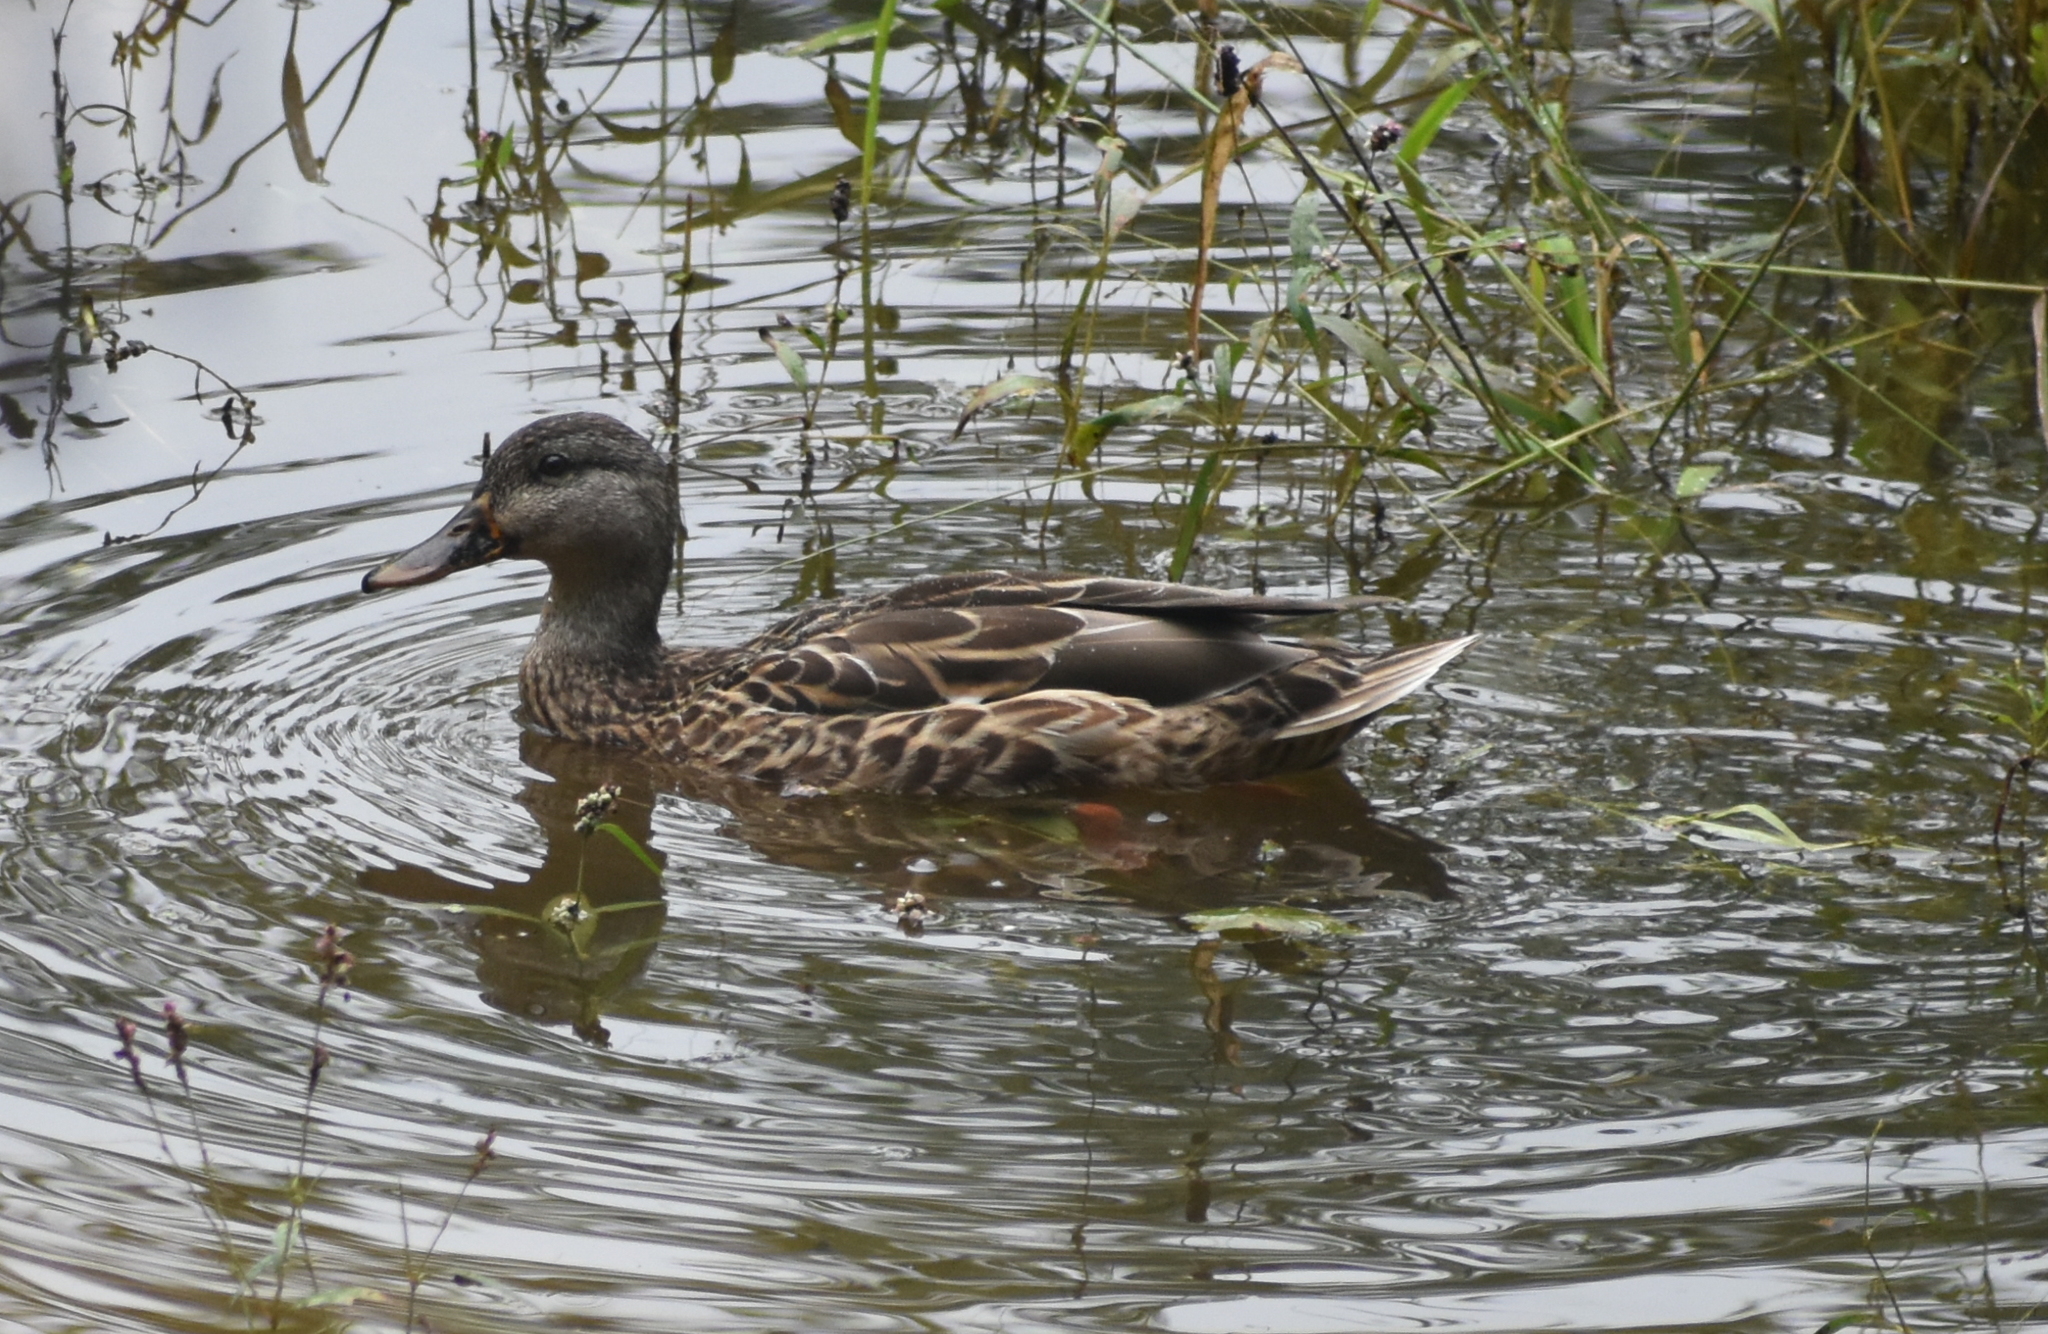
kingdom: Animalia
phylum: Chordata
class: Aves
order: Anseriformes
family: Anatidae
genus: Anas
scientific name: Anas platyrhynchos
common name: Mallard
